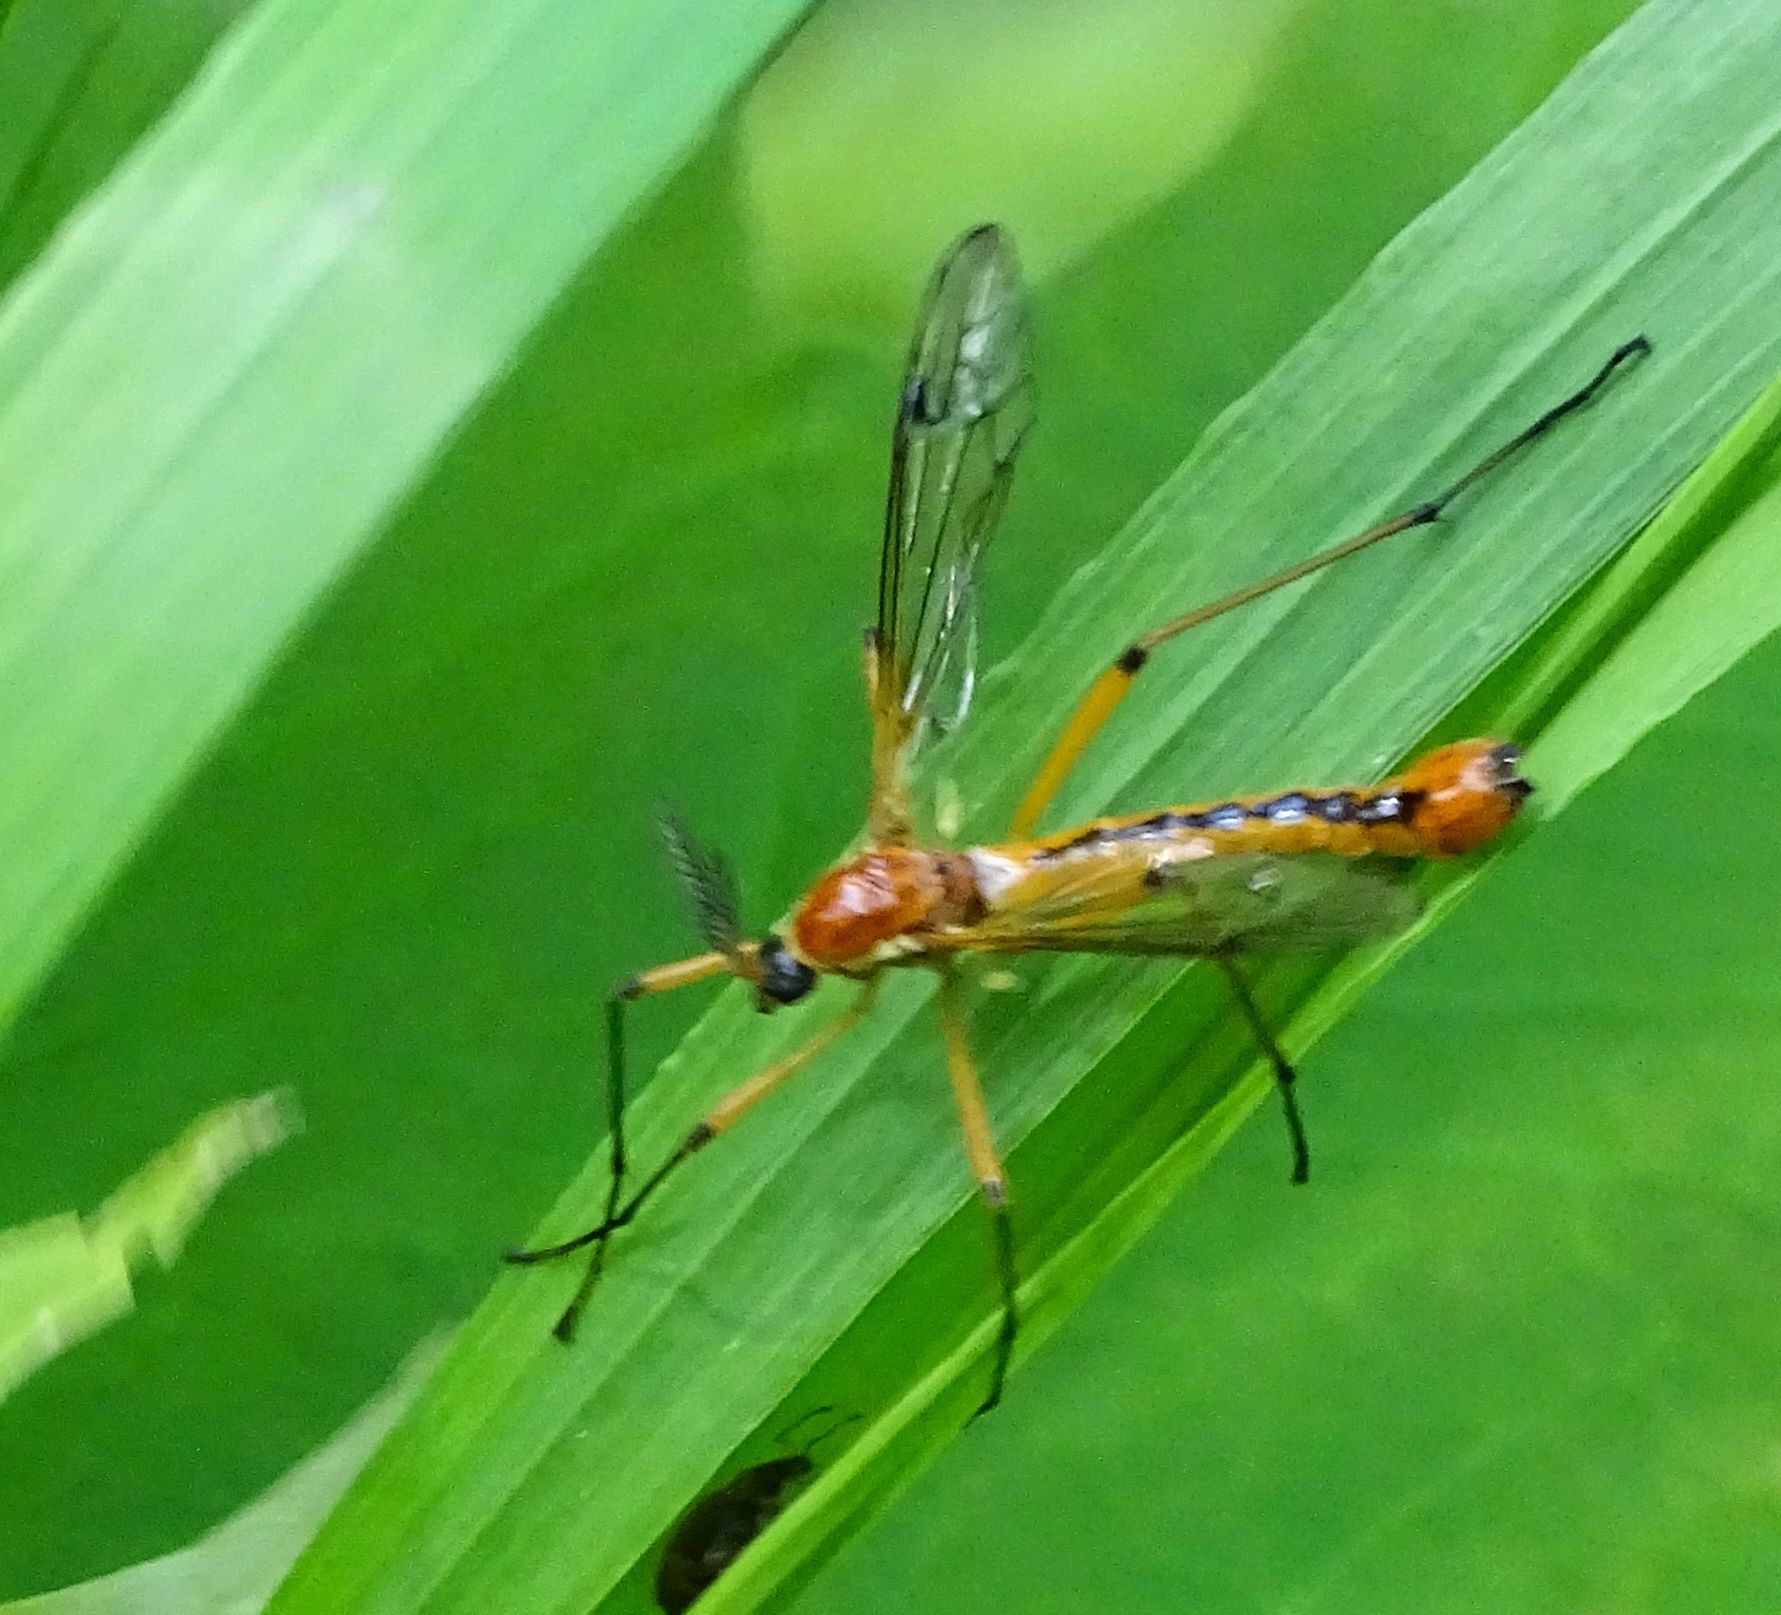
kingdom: Animalia
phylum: Arthropoda
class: Insecta
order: Diptera
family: Tipulidae
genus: Tanyptera
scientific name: Tanyptera dorsalis
